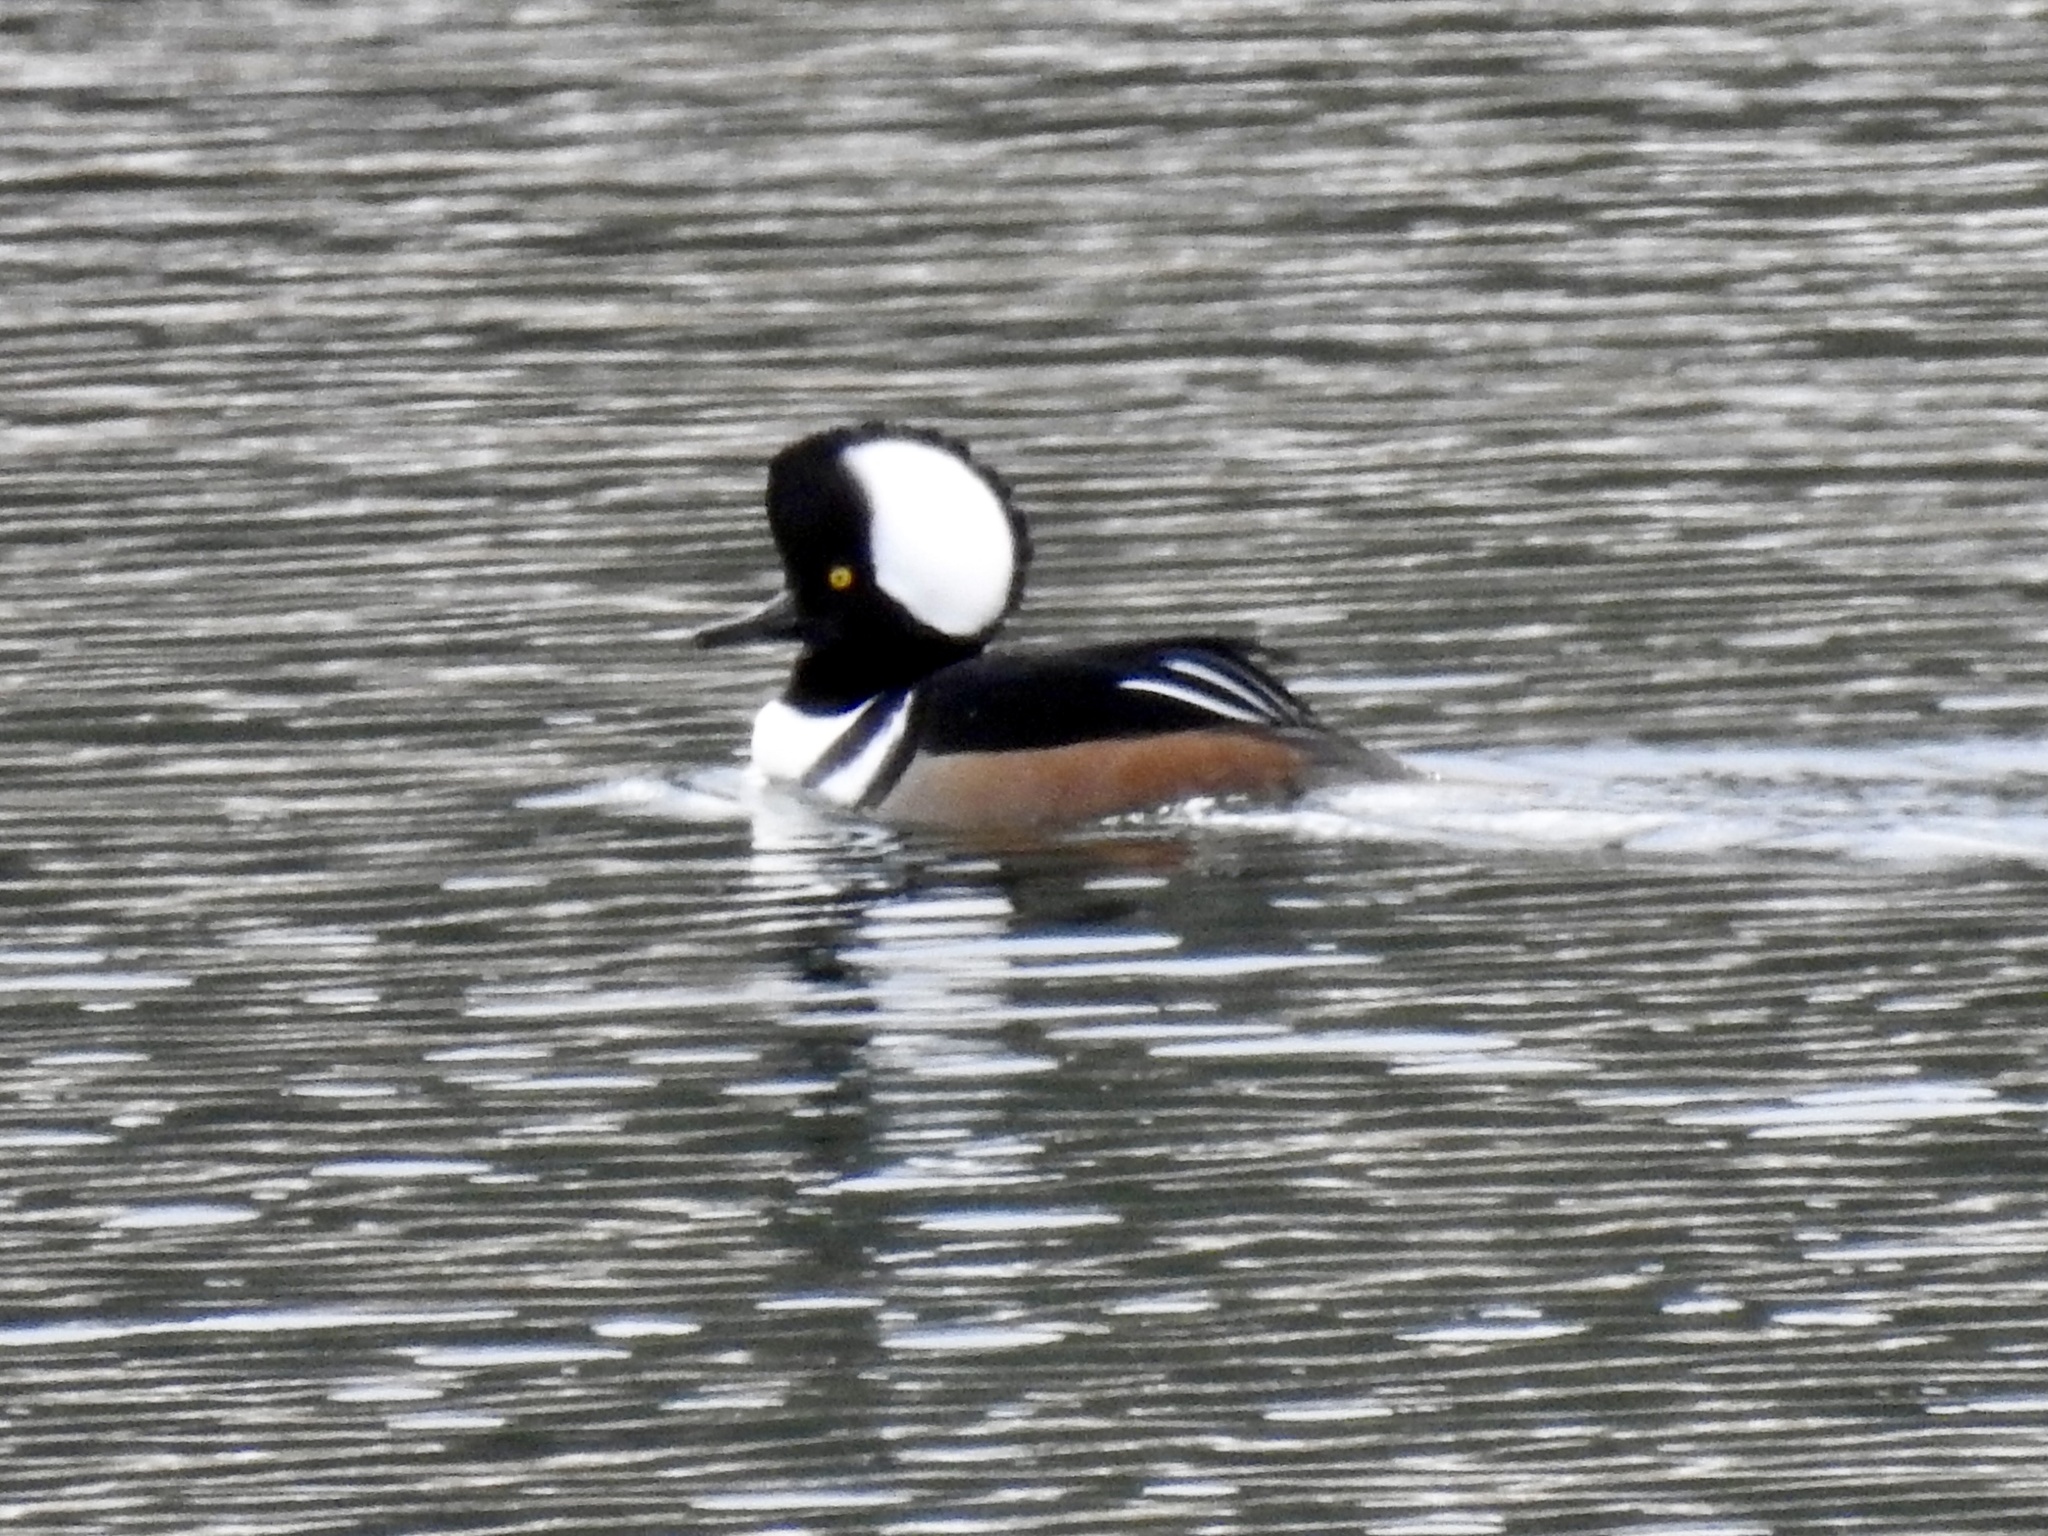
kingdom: Animalia
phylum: Chordata
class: Aves
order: Anseriformes
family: Anatidae
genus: Lophodytes
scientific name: Lophodytes cucullatus
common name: Hooded merganser
